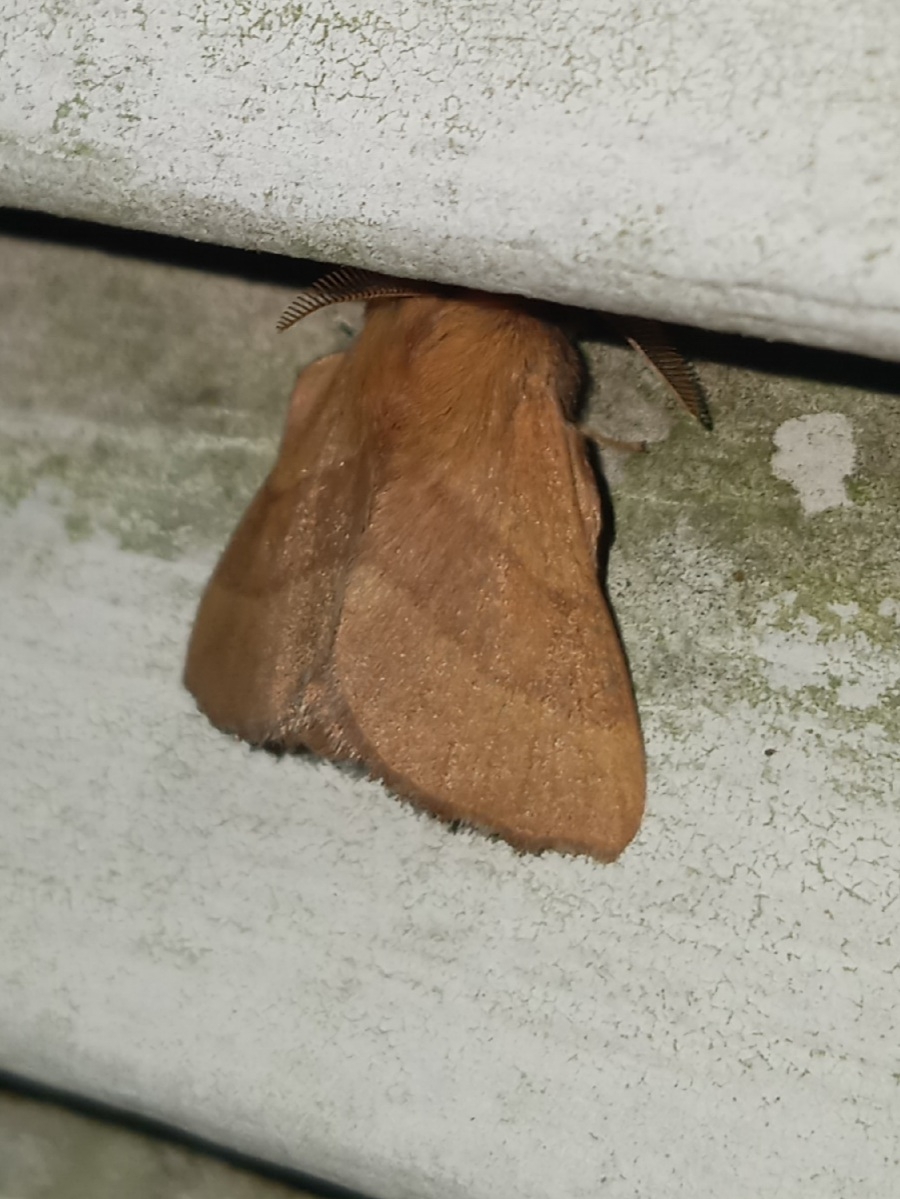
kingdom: Animalia
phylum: Arthropoda
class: Insecta
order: Lepidoptera
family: Lasiocampidae
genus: Malacosoma
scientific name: Malacosoma disstria
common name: Forest tent caterpillar
